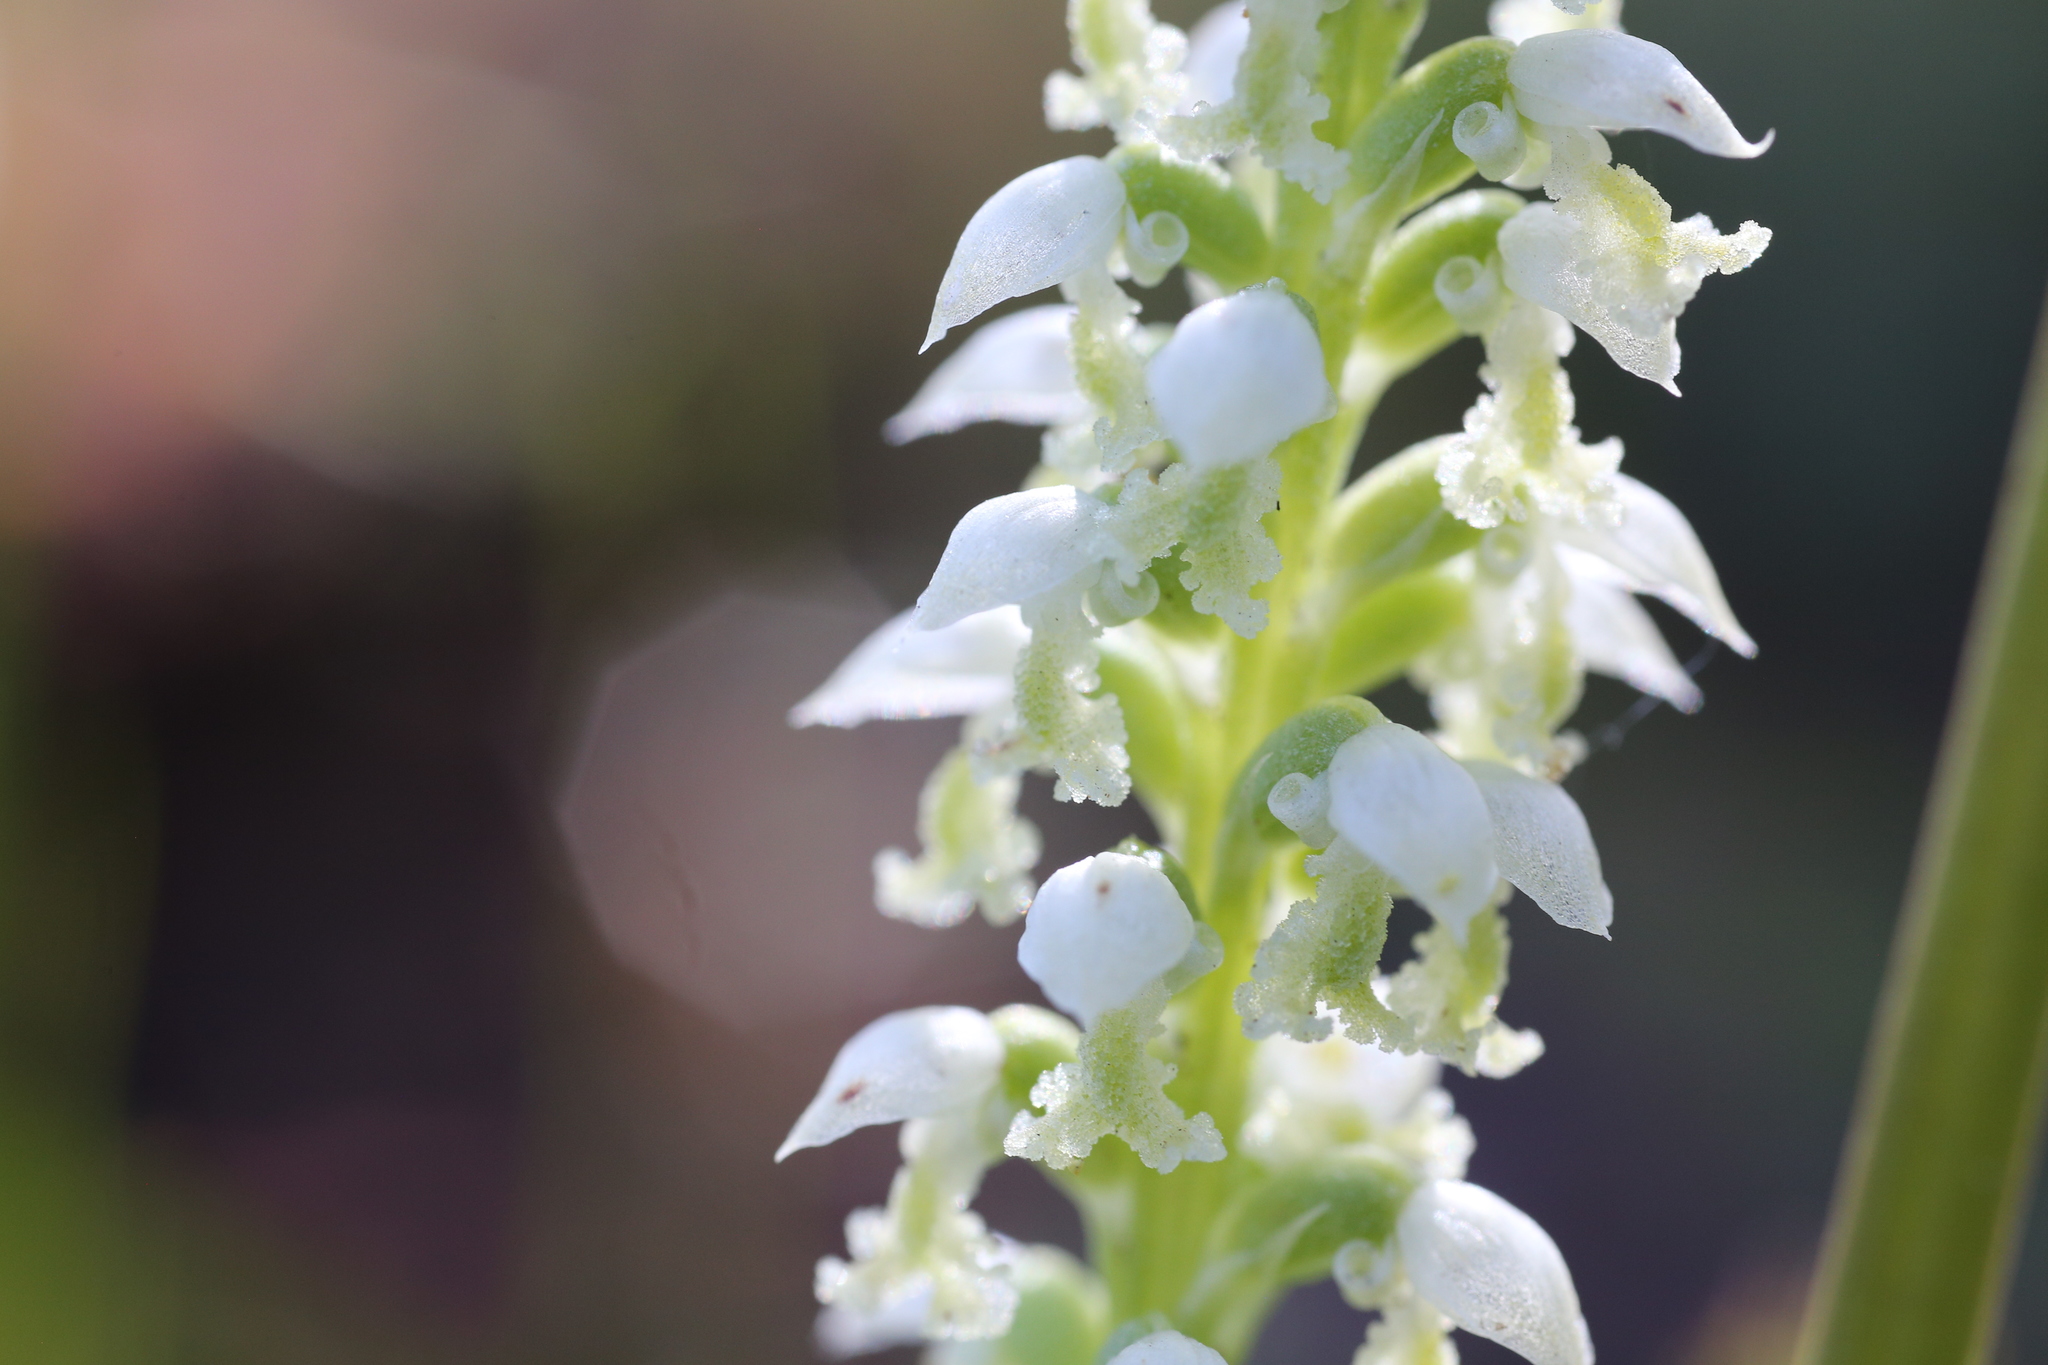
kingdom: Plantae
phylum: Tracheophyta
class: Liliopsida
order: Asparagales
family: Orchidaceae
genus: Microtis
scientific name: Microtis alba
